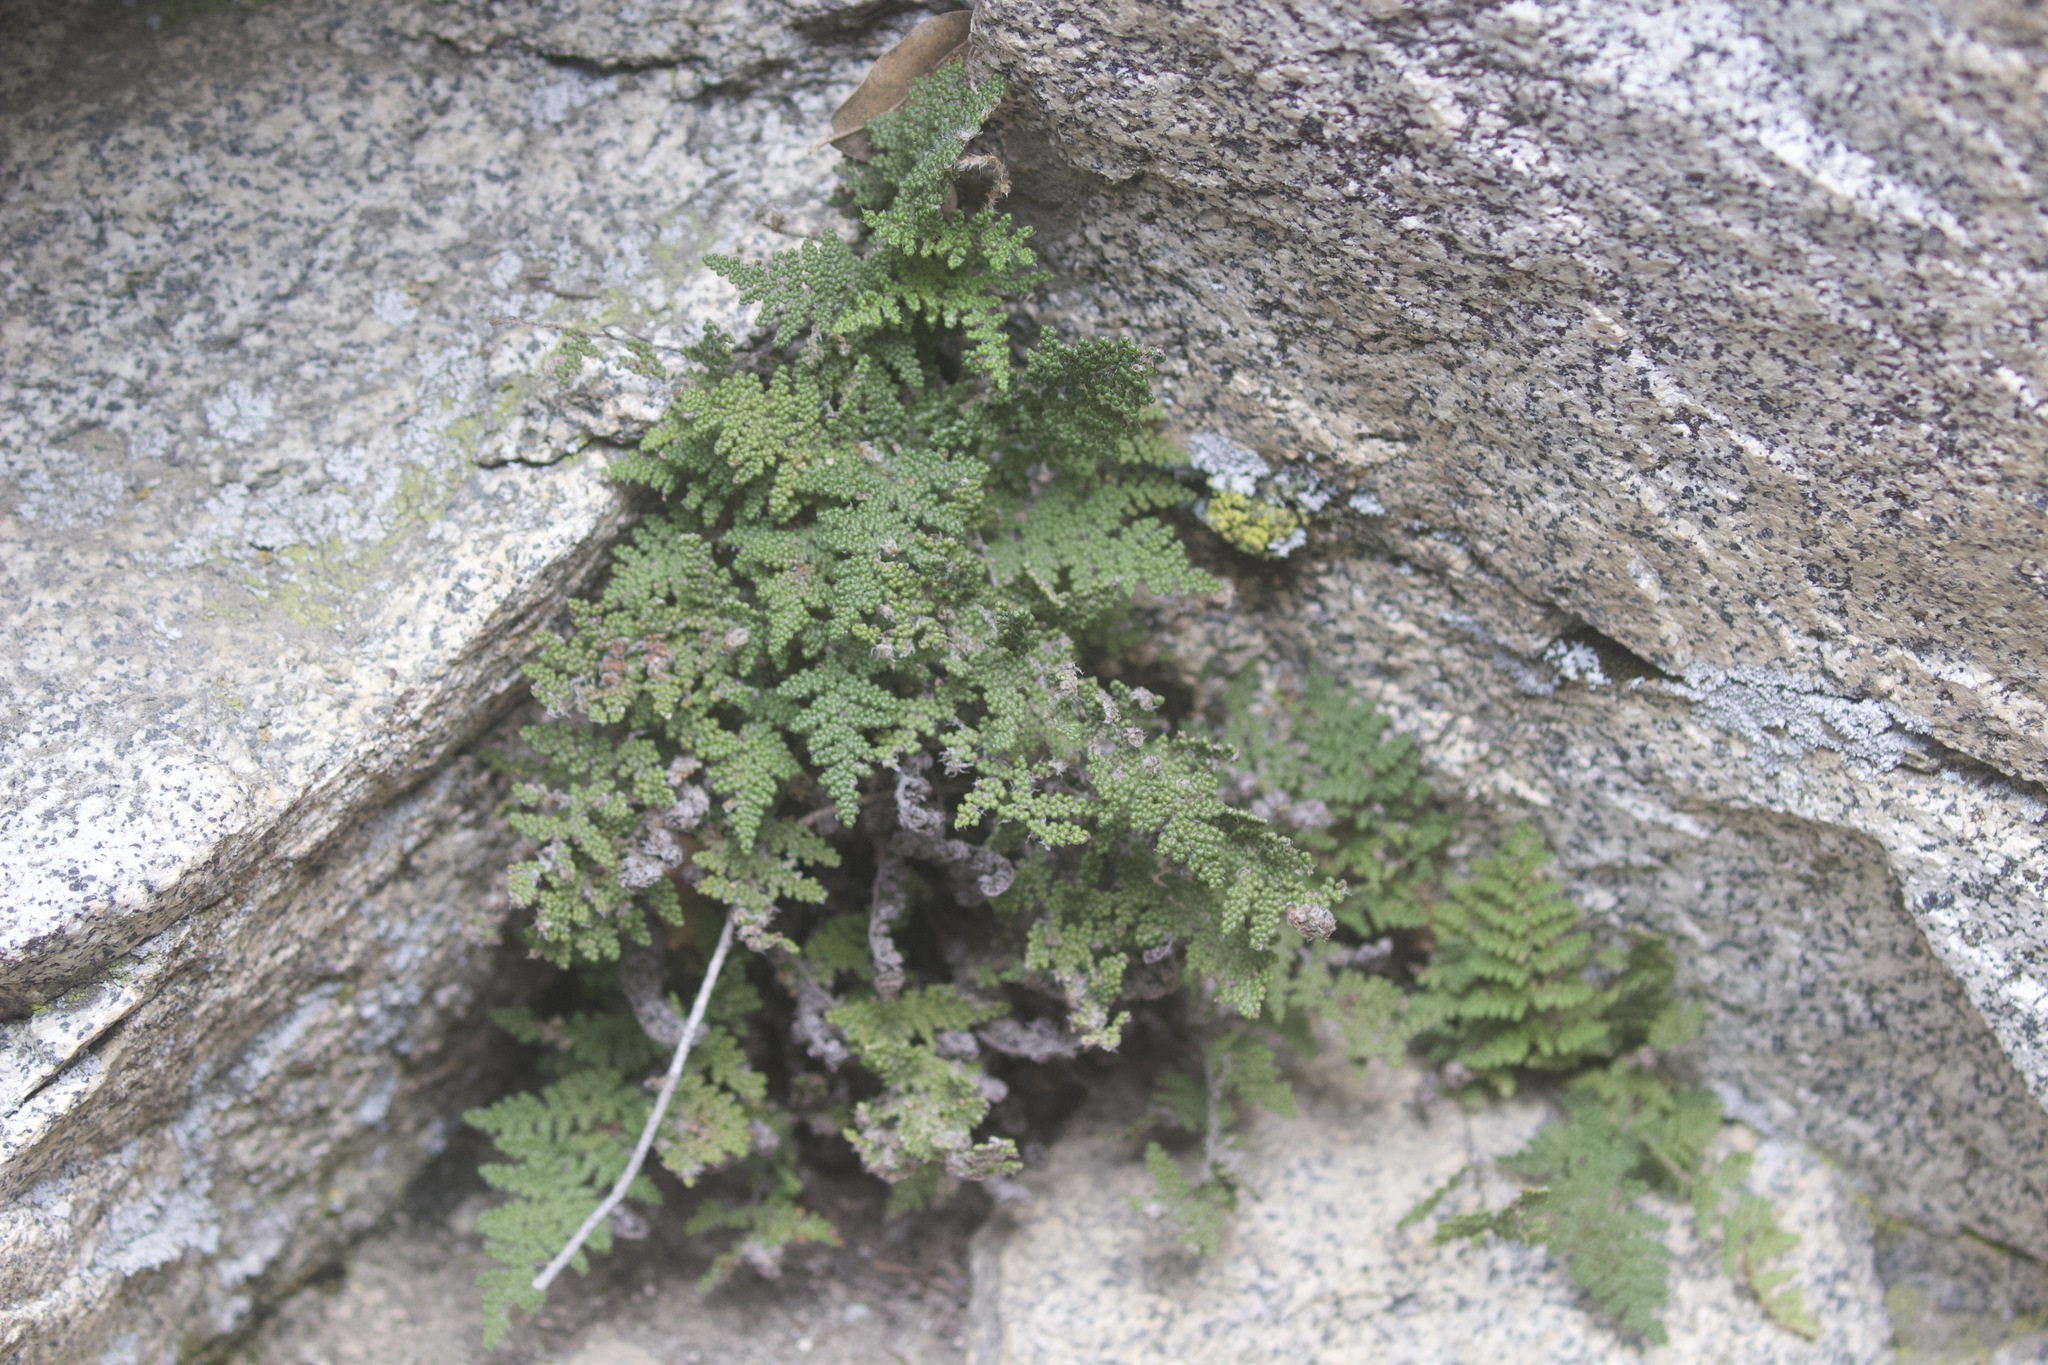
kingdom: Plantae
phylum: Tracheophyta
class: Polypodiopsida
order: Polypodiales
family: Pteridaceae
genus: Myriopteris
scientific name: Myriopteris covillei
